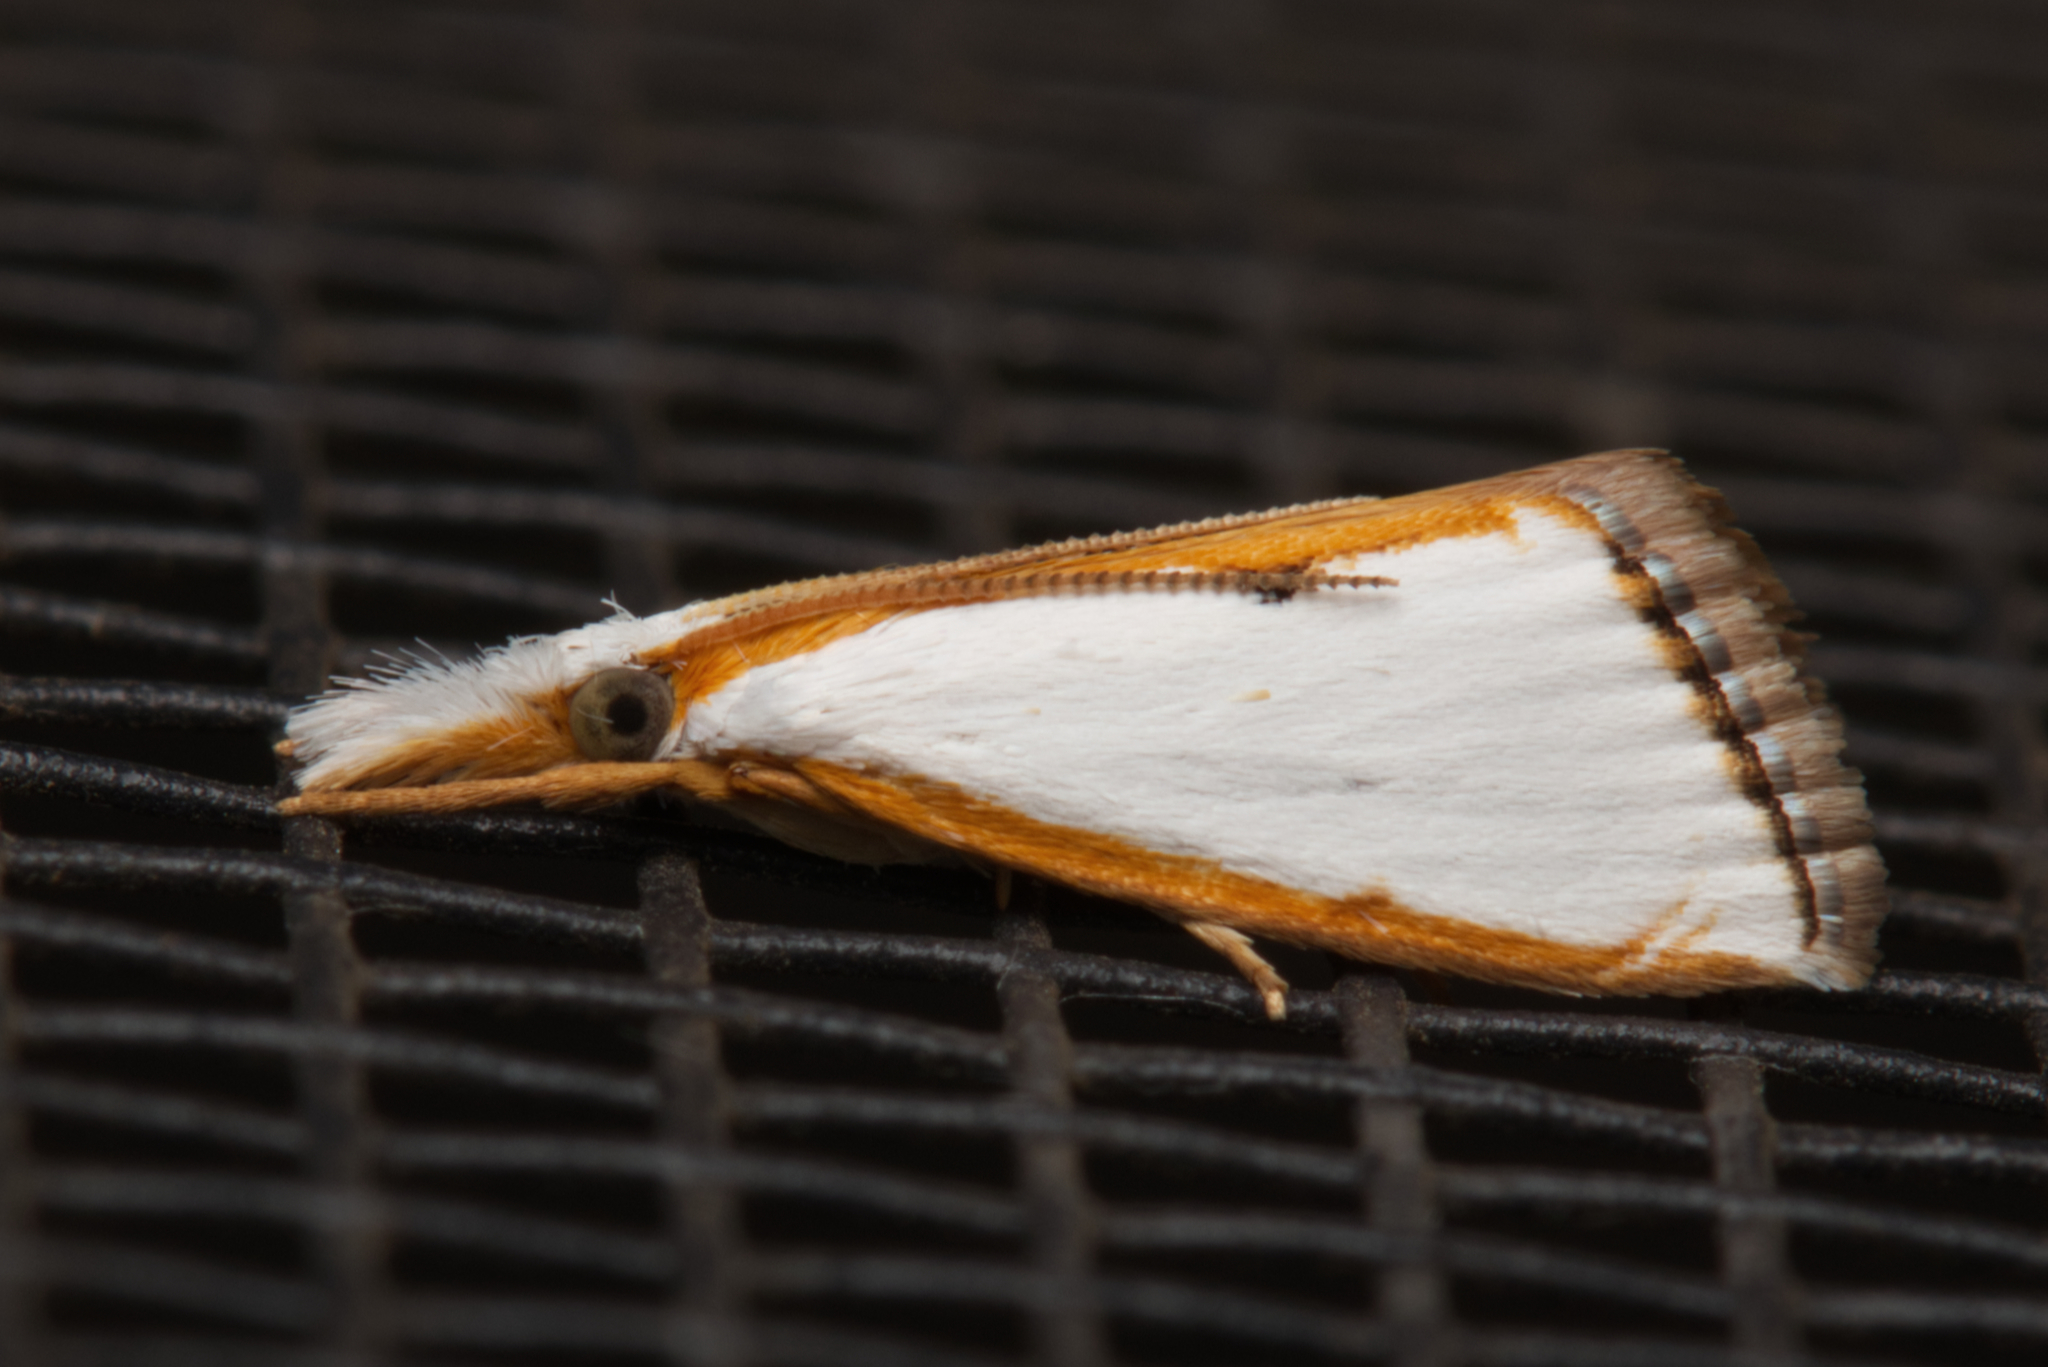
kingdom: Animalia
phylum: Arthropoda
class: Insecta
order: Lepidoptera
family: Crambidae
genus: Neargyria
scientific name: Neargyria argyraspis
